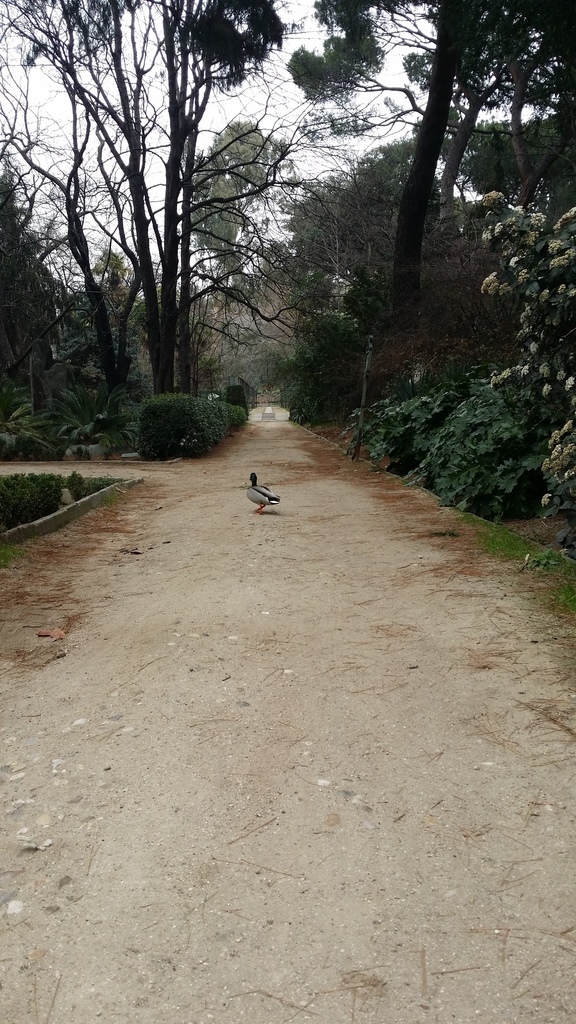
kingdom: Animalia
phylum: Chordata
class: Aves
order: Anseriformes
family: Anatidae
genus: Anas
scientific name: Anas platyrhynchos
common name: Mallard
